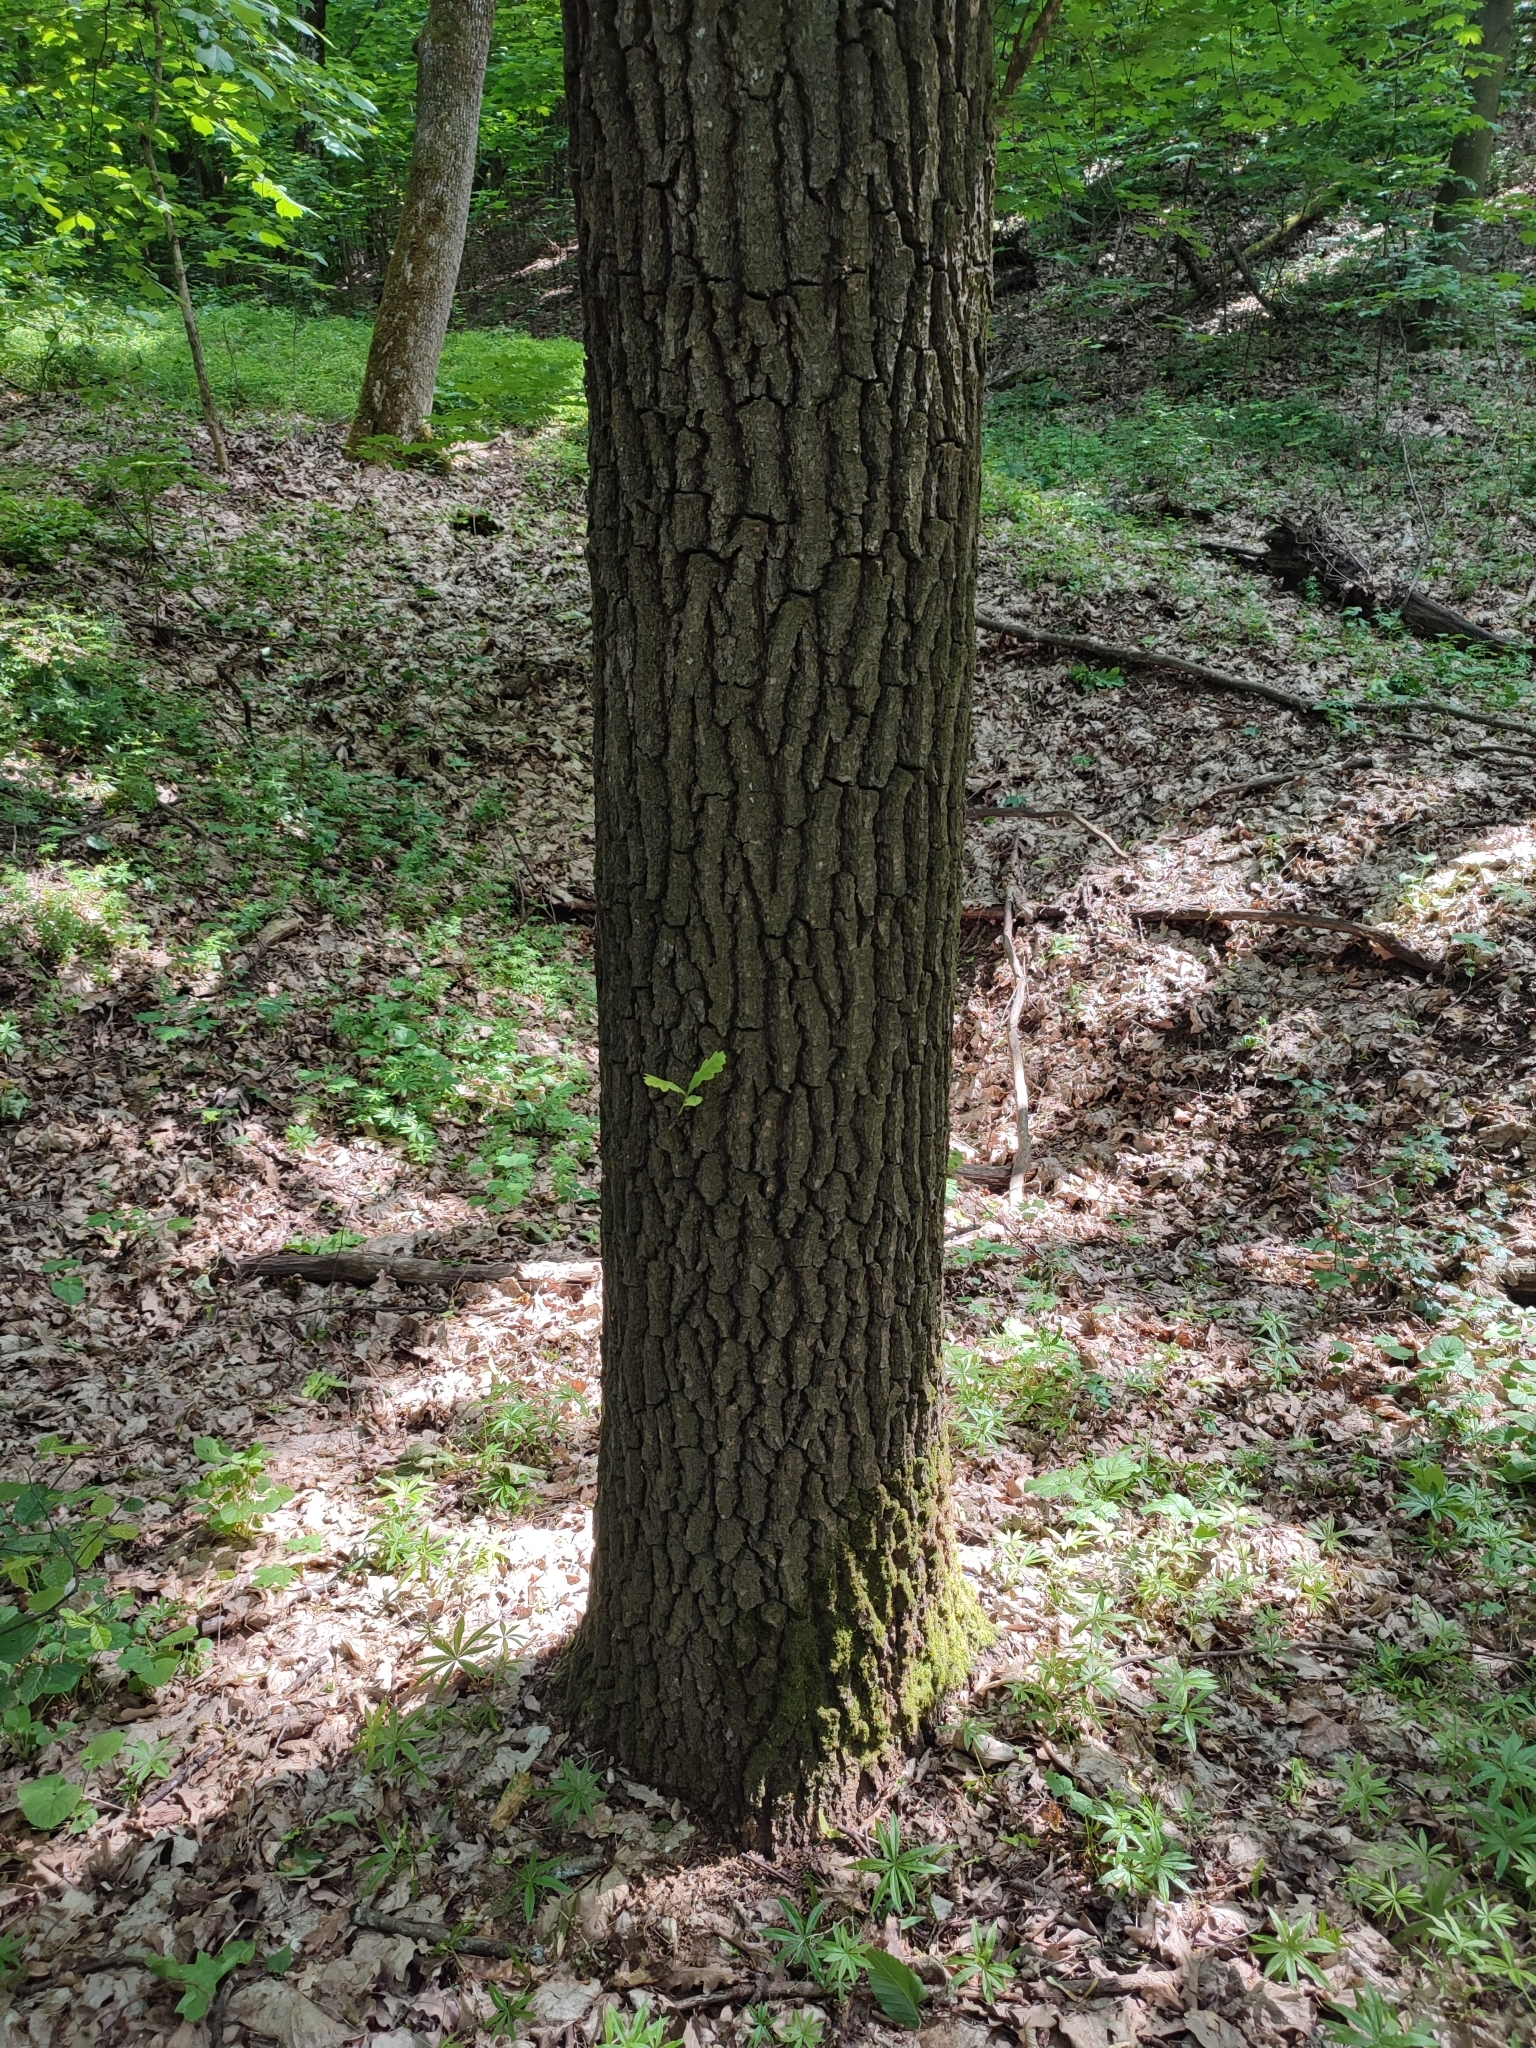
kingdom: Plantae
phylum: Tracheophyta
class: Magnoliopsida
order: Fagales
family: Fagaceae
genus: Quercus
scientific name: Quercus robur
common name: Pedunculate oak
